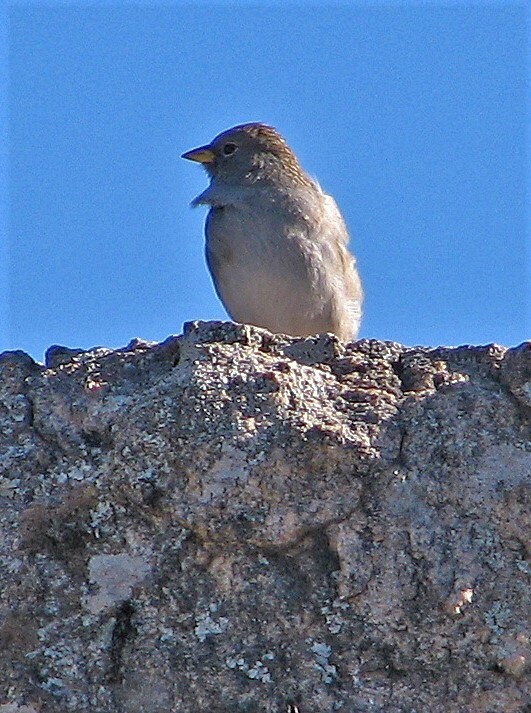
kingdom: Animalia
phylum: Chordata
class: Aves
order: Passeriformes
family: Thraupidae
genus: Porphyrospiza
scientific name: Porphyrospiza alaudina
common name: Band-tailed sierra finch
